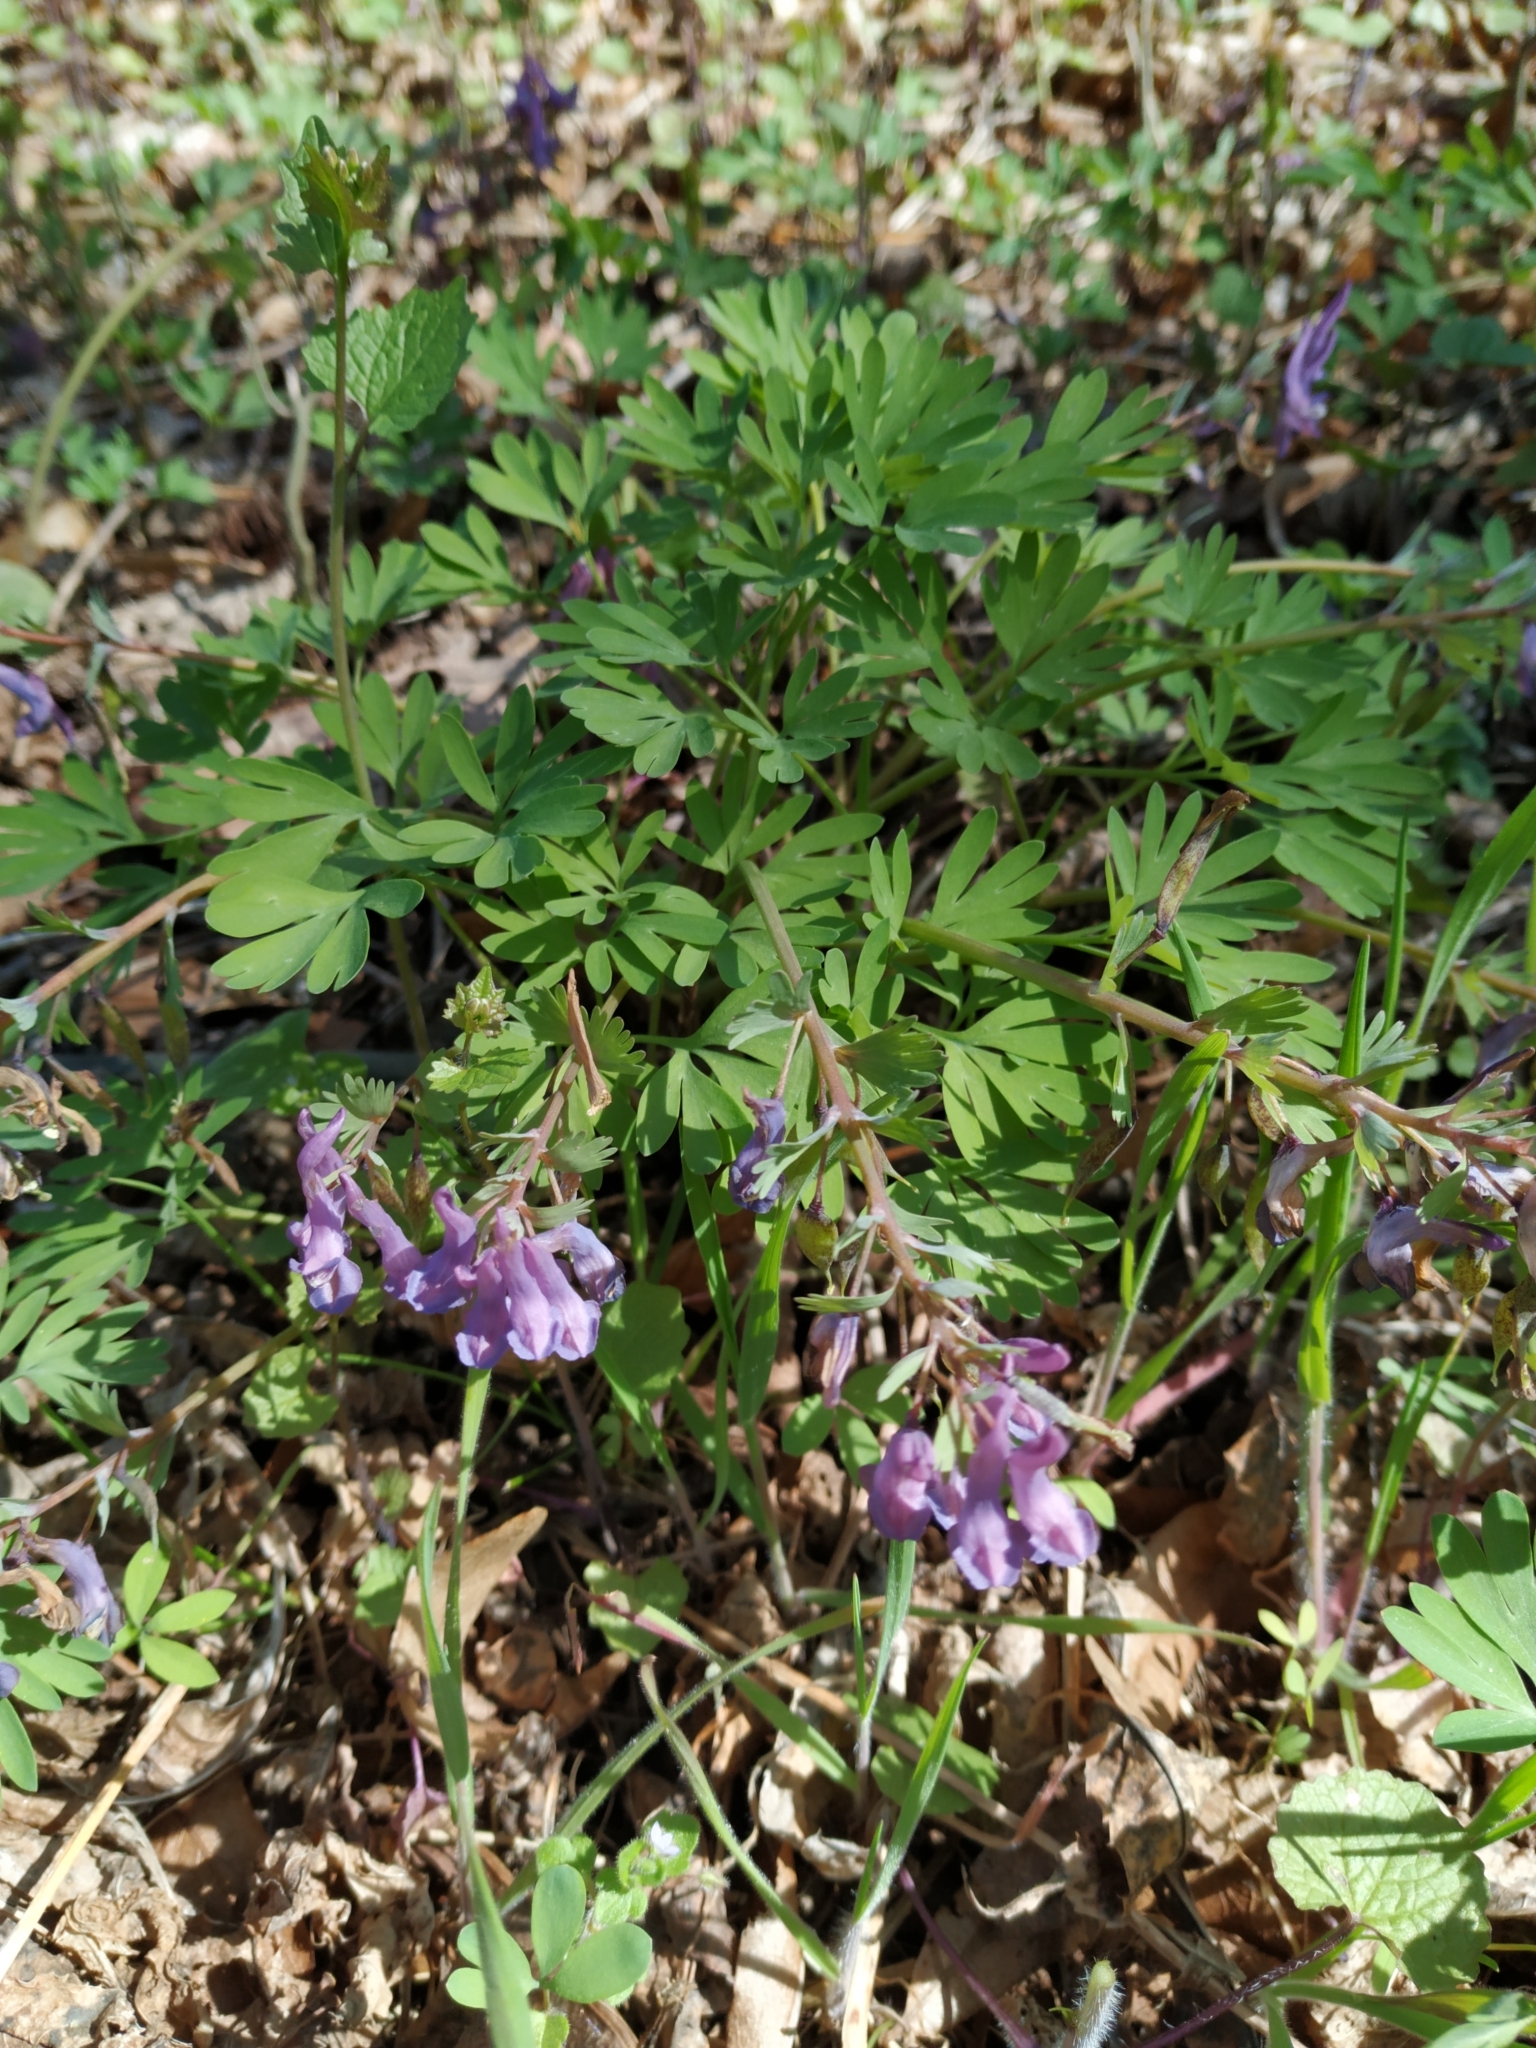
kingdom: Plantae
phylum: Tracheophyta
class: Magnoliopsida
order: Ranunculales
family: Papaveraceae
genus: Corydalis
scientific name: Corydalis solida
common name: Bird-in-a-bush
